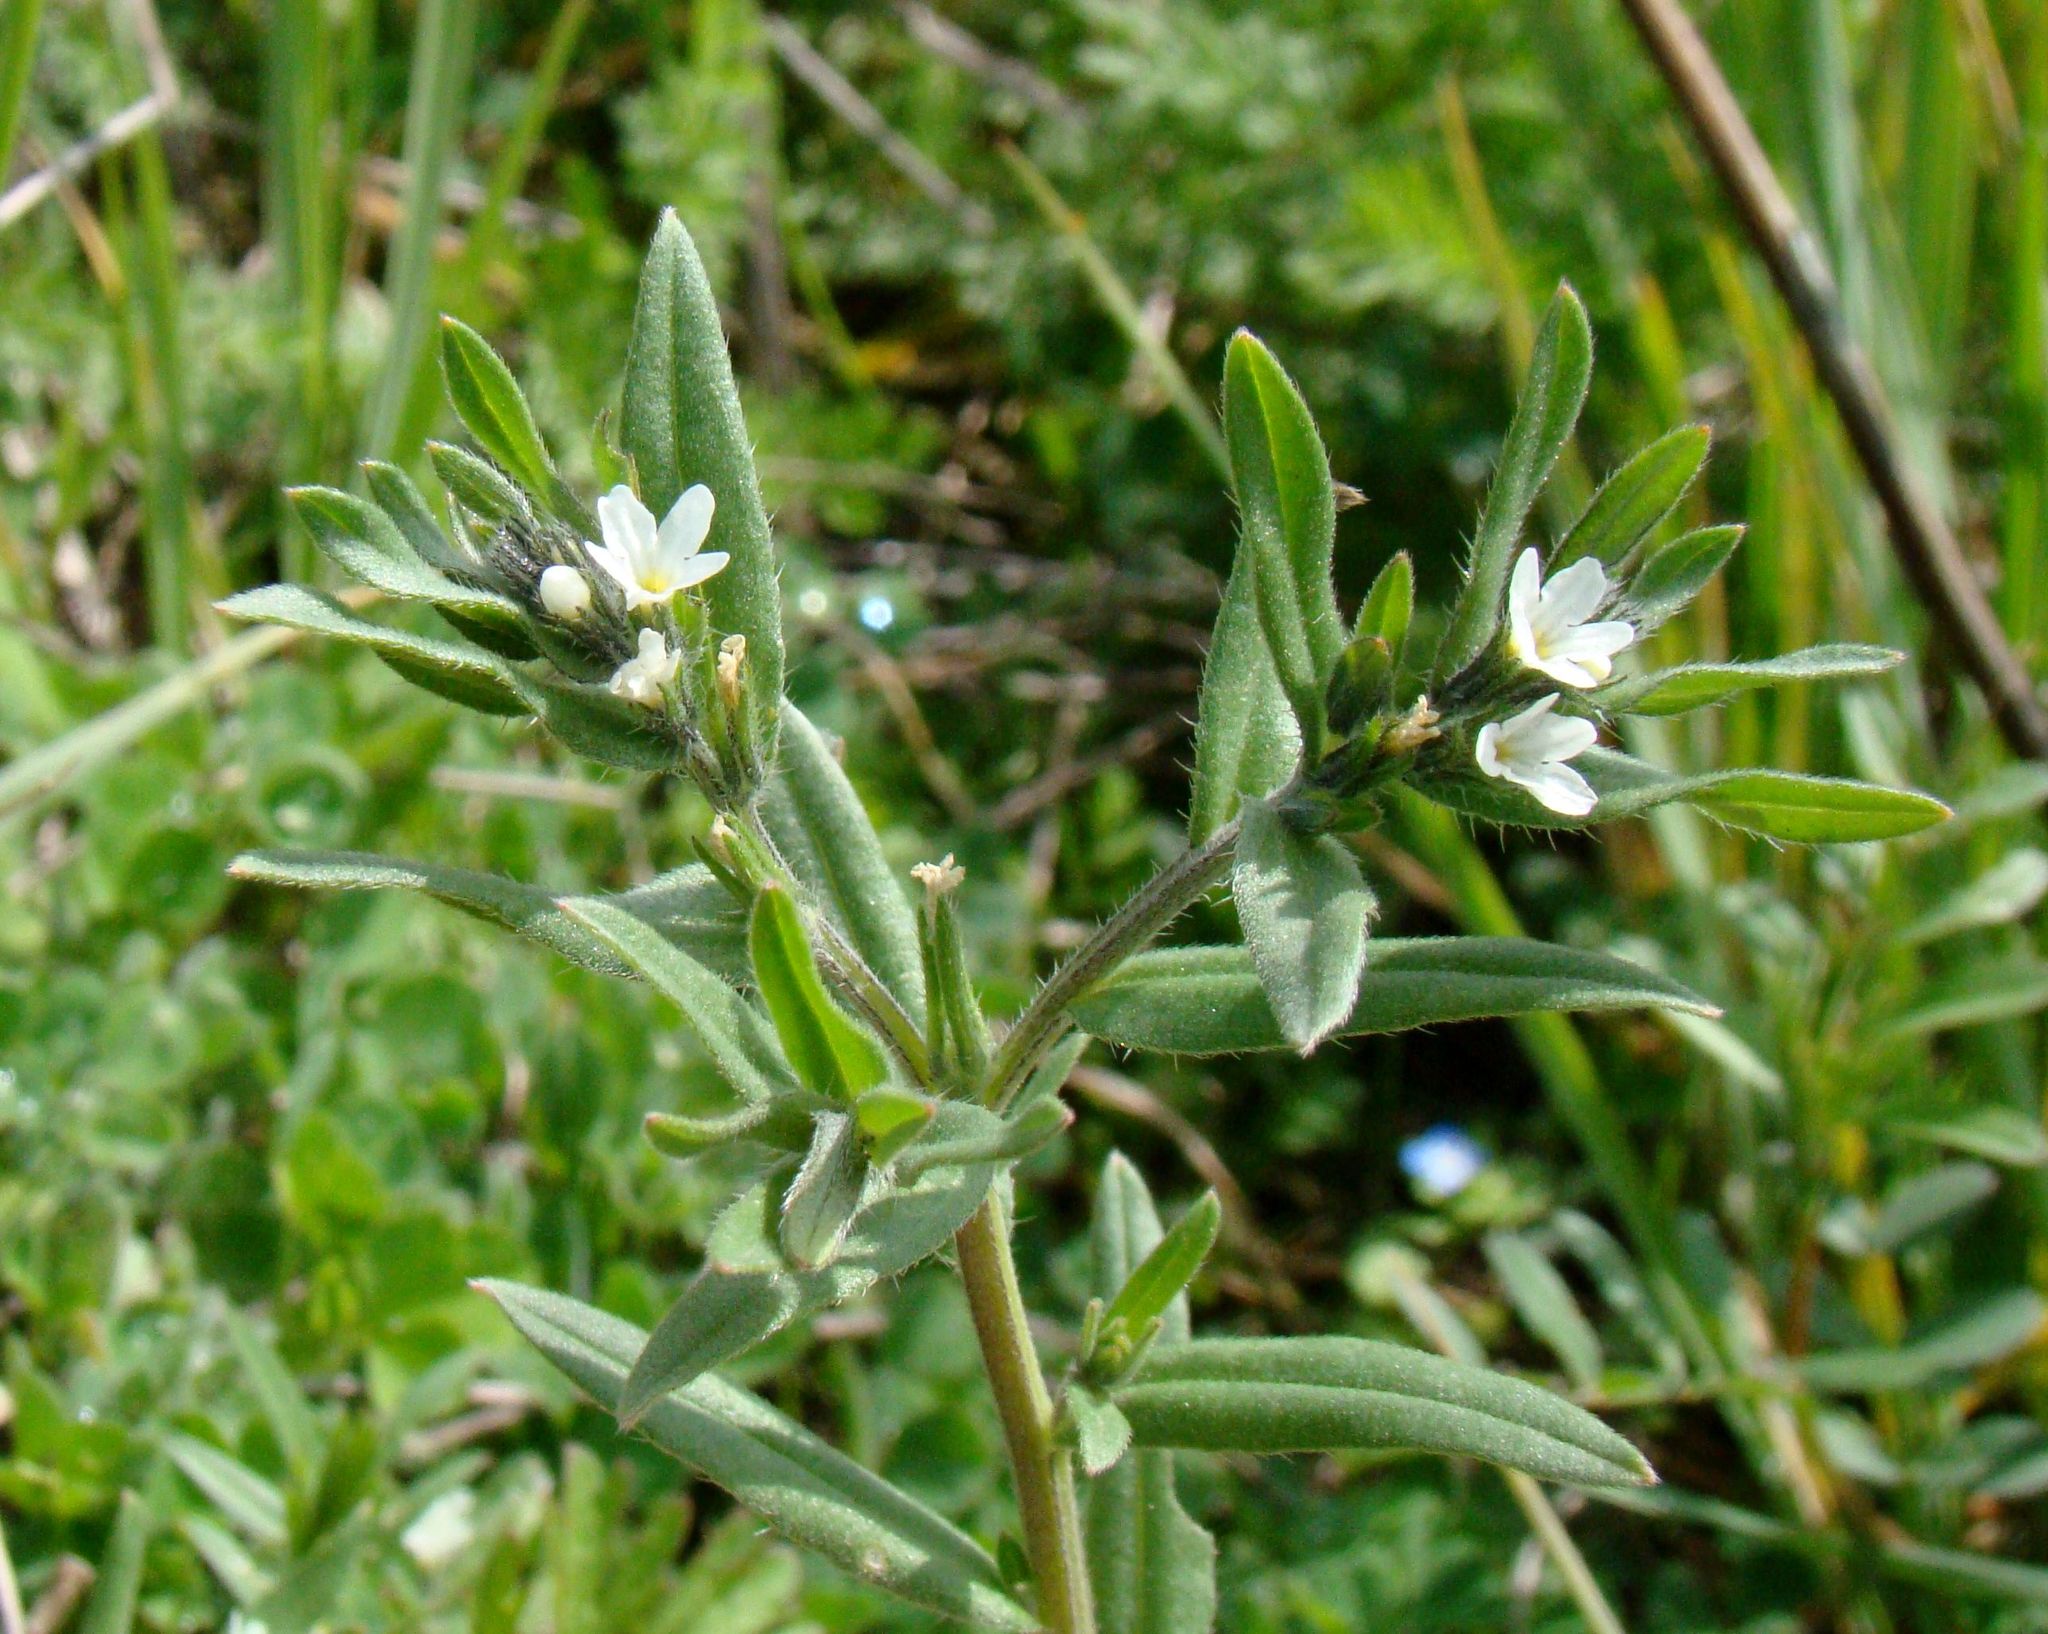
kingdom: Plantae
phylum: Tracheophyta
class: Magnoliopsida
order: Boraginales
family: Boraginaceae
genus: Buglossoides
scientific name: Buglossoides arvensis
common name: Corn gromwell
